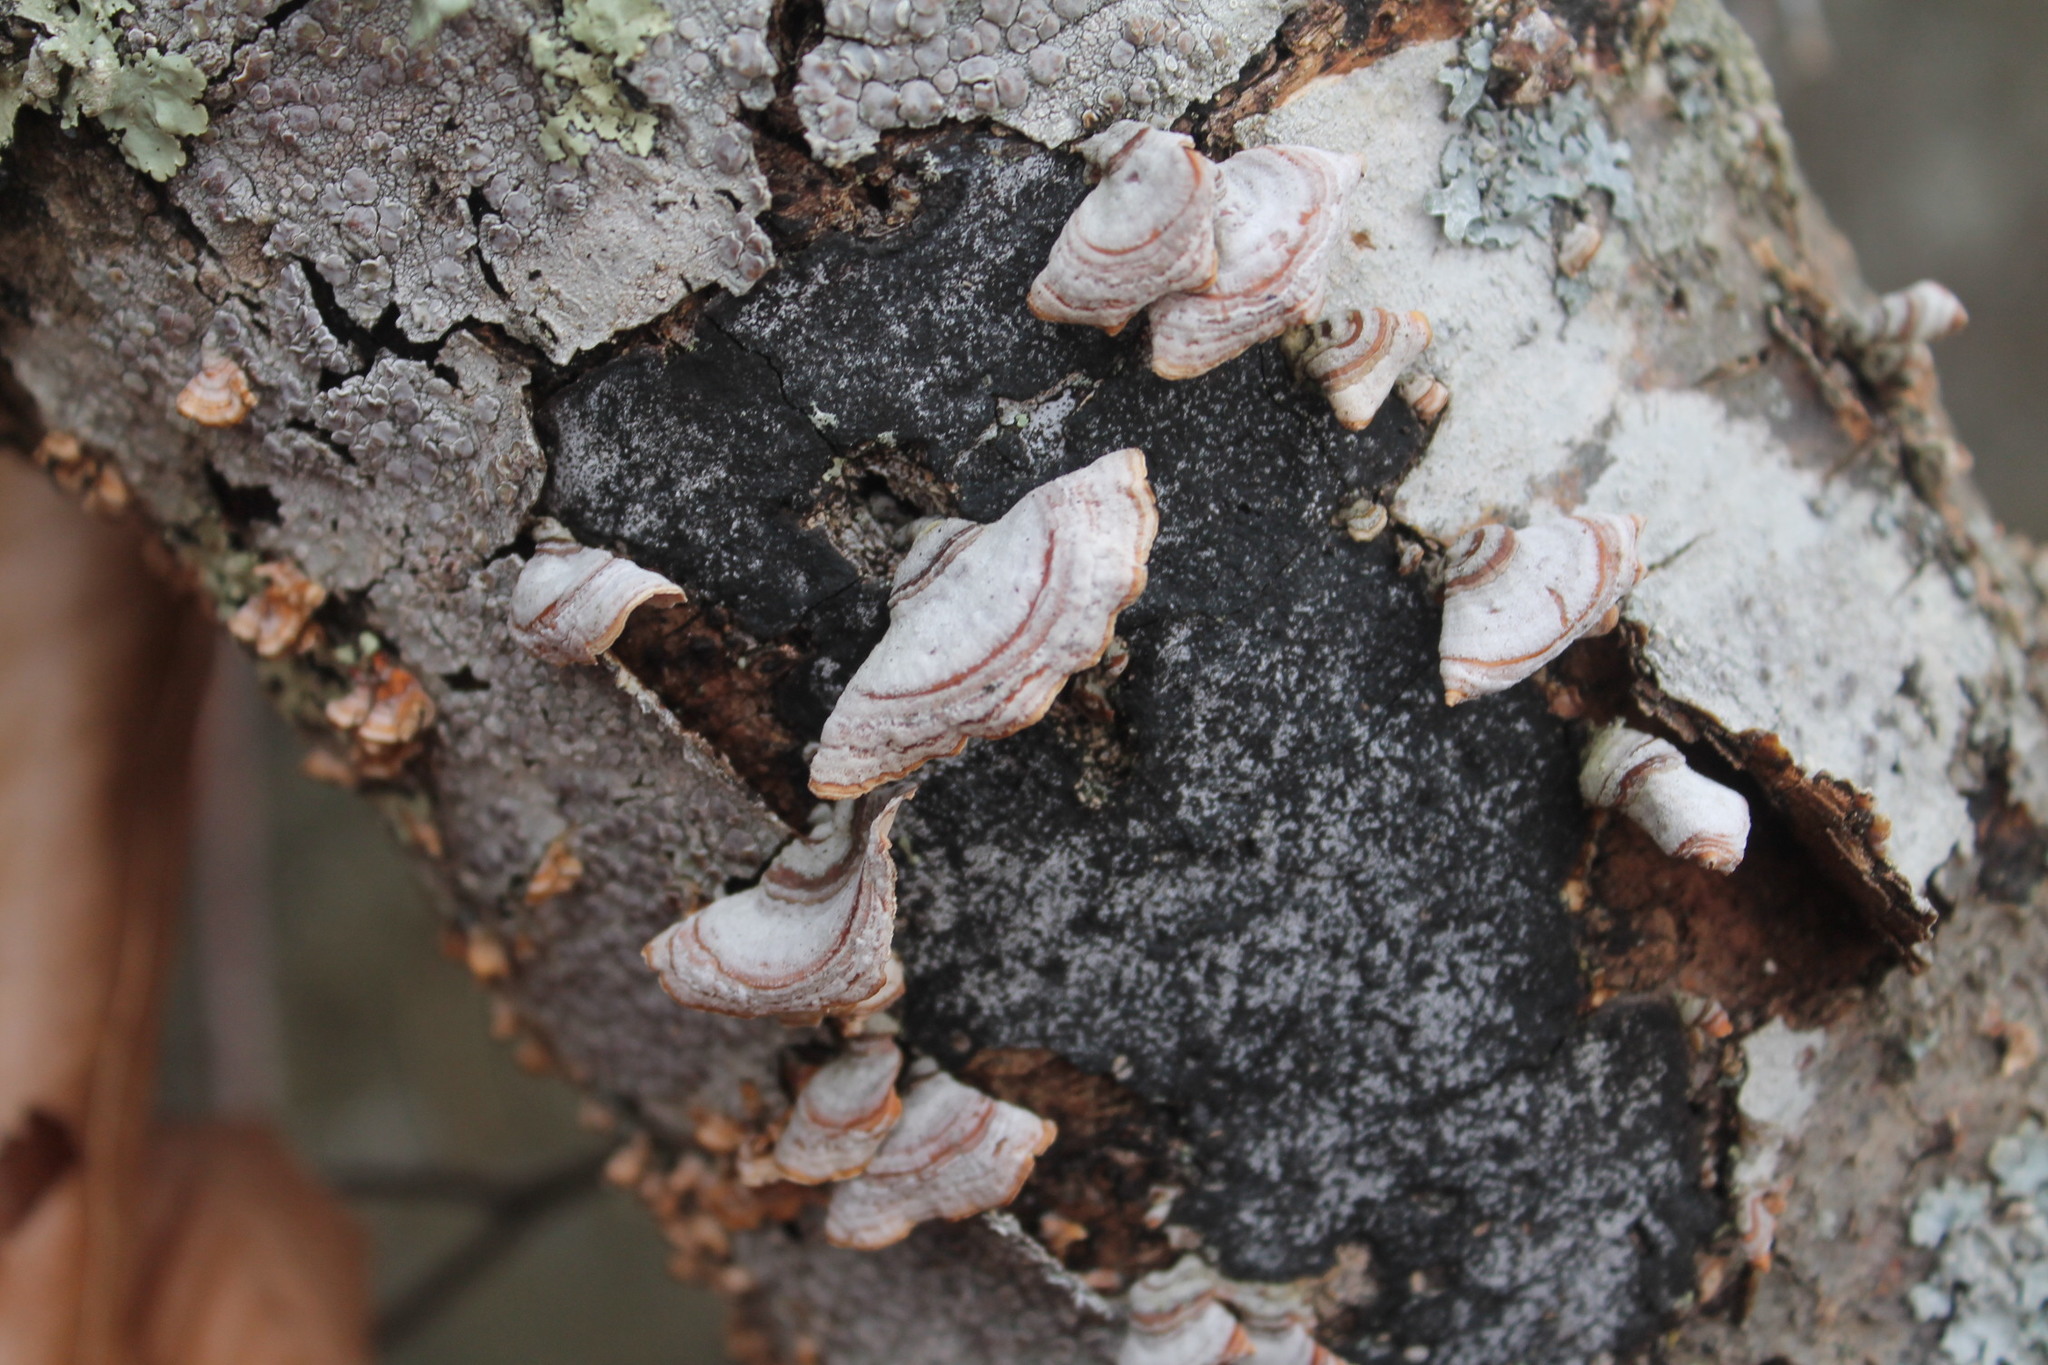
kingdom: Fungi
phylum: Basidiomycota
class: Agaricomycetes
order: Russulales
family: Stereaceae
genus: Stereum
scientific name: Stereum lobatum
